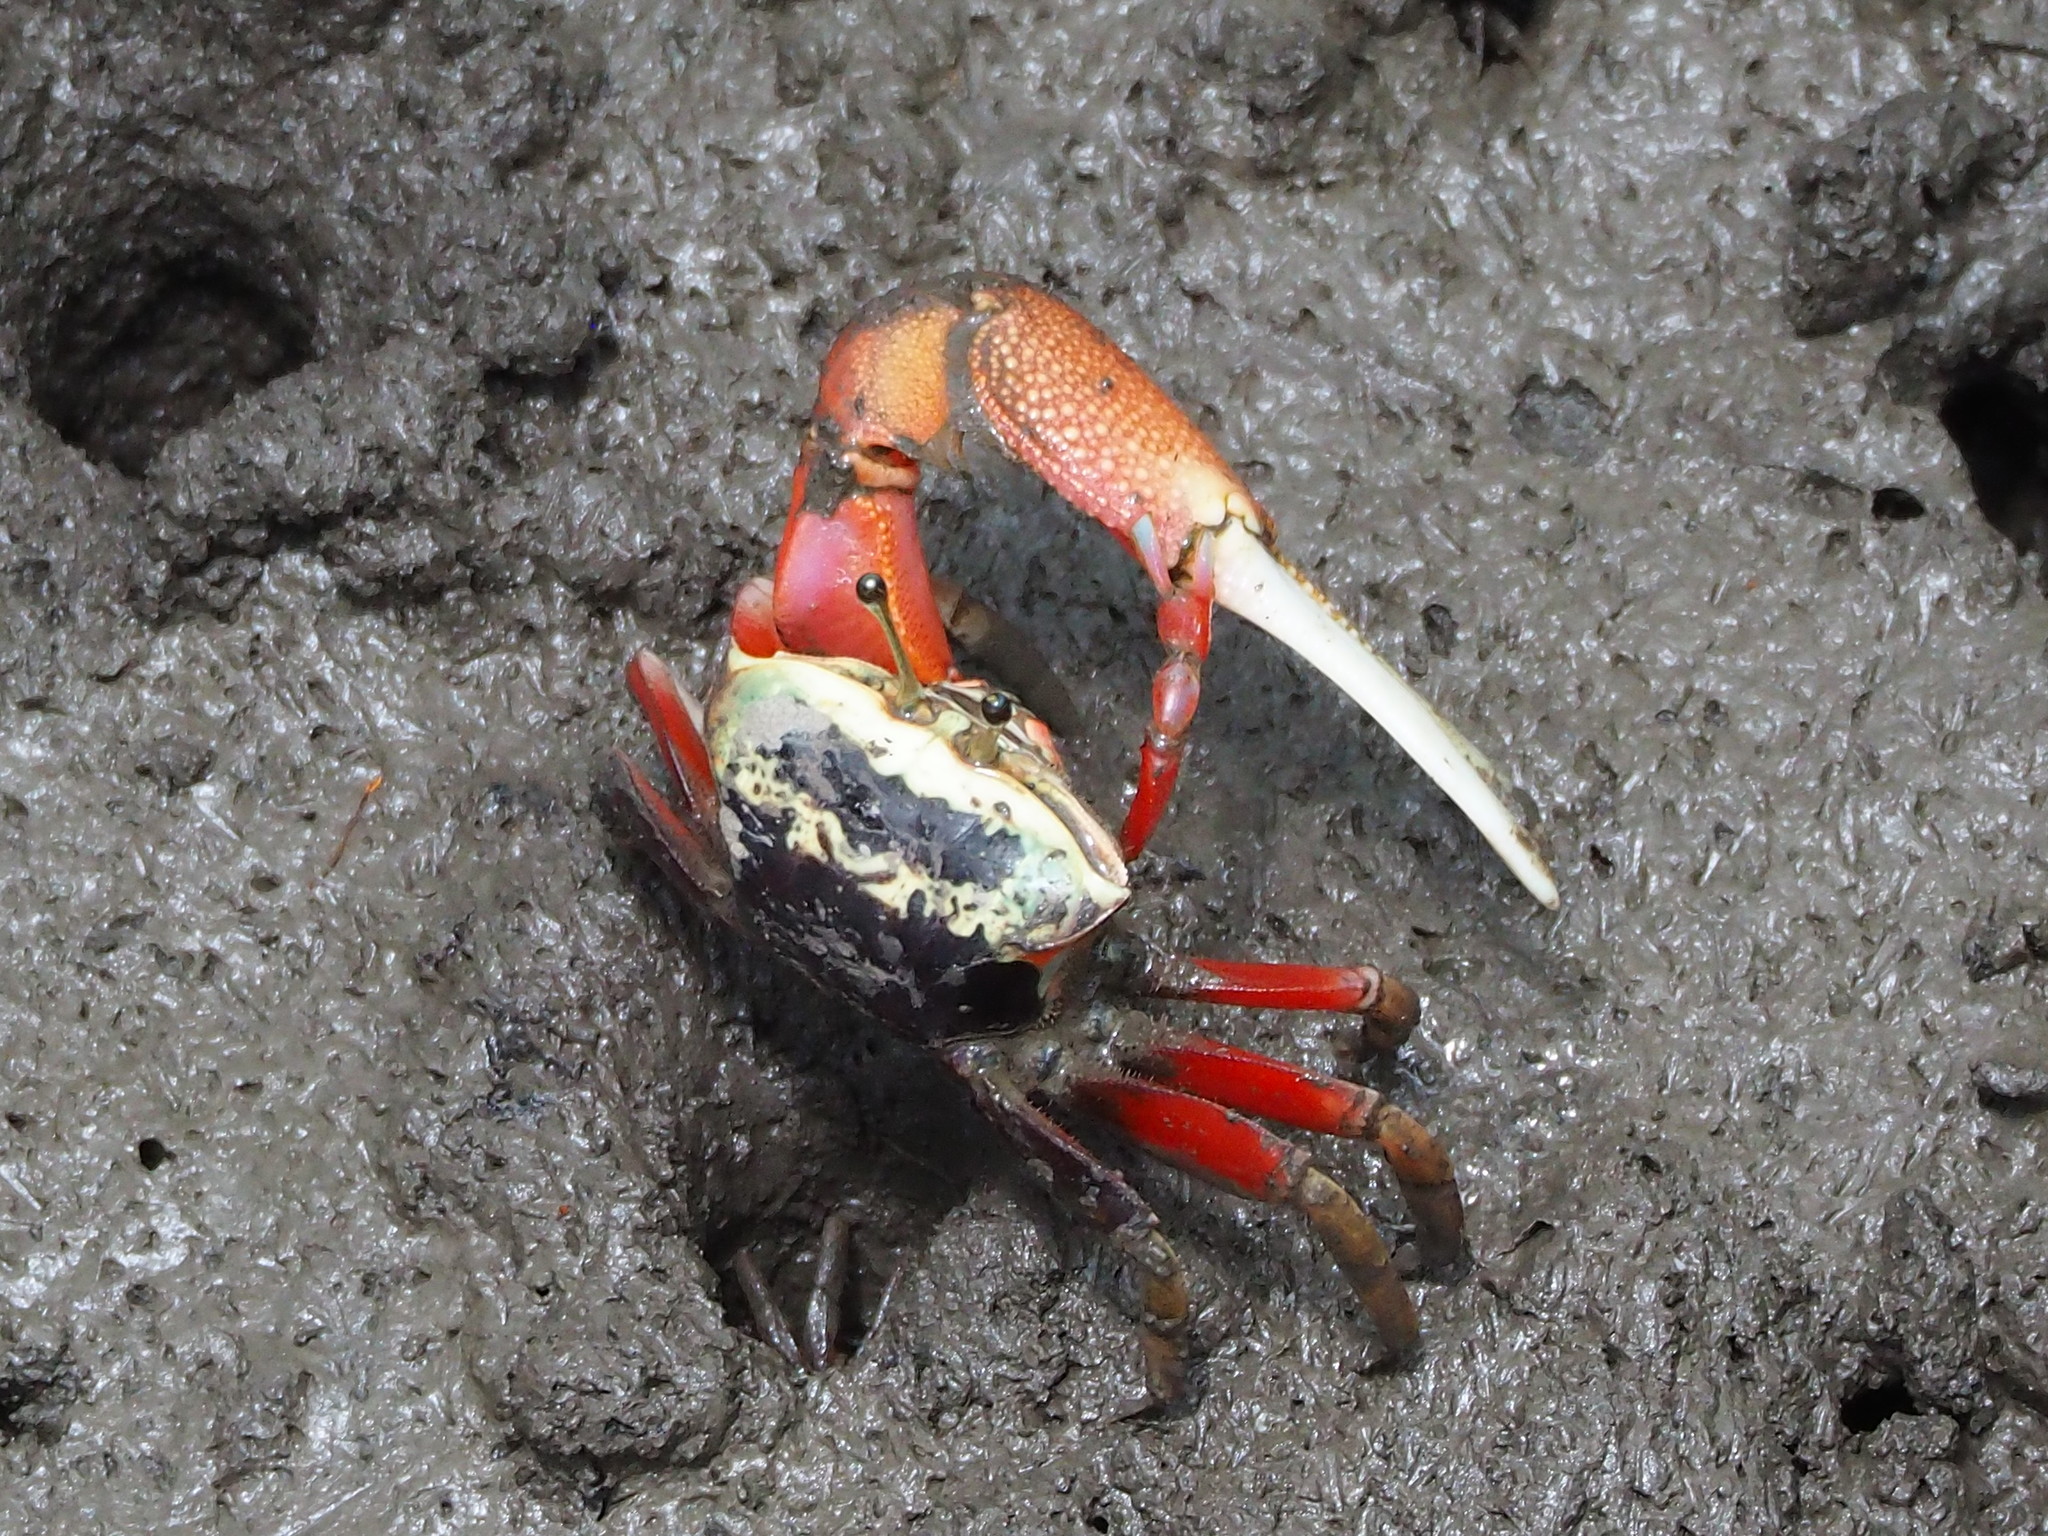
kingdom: Animalia
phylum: Arthropoda
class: Malacostraca
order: Decapoda
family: Ocypodidae
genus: Tubuca
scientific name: Tubuca arcuata
